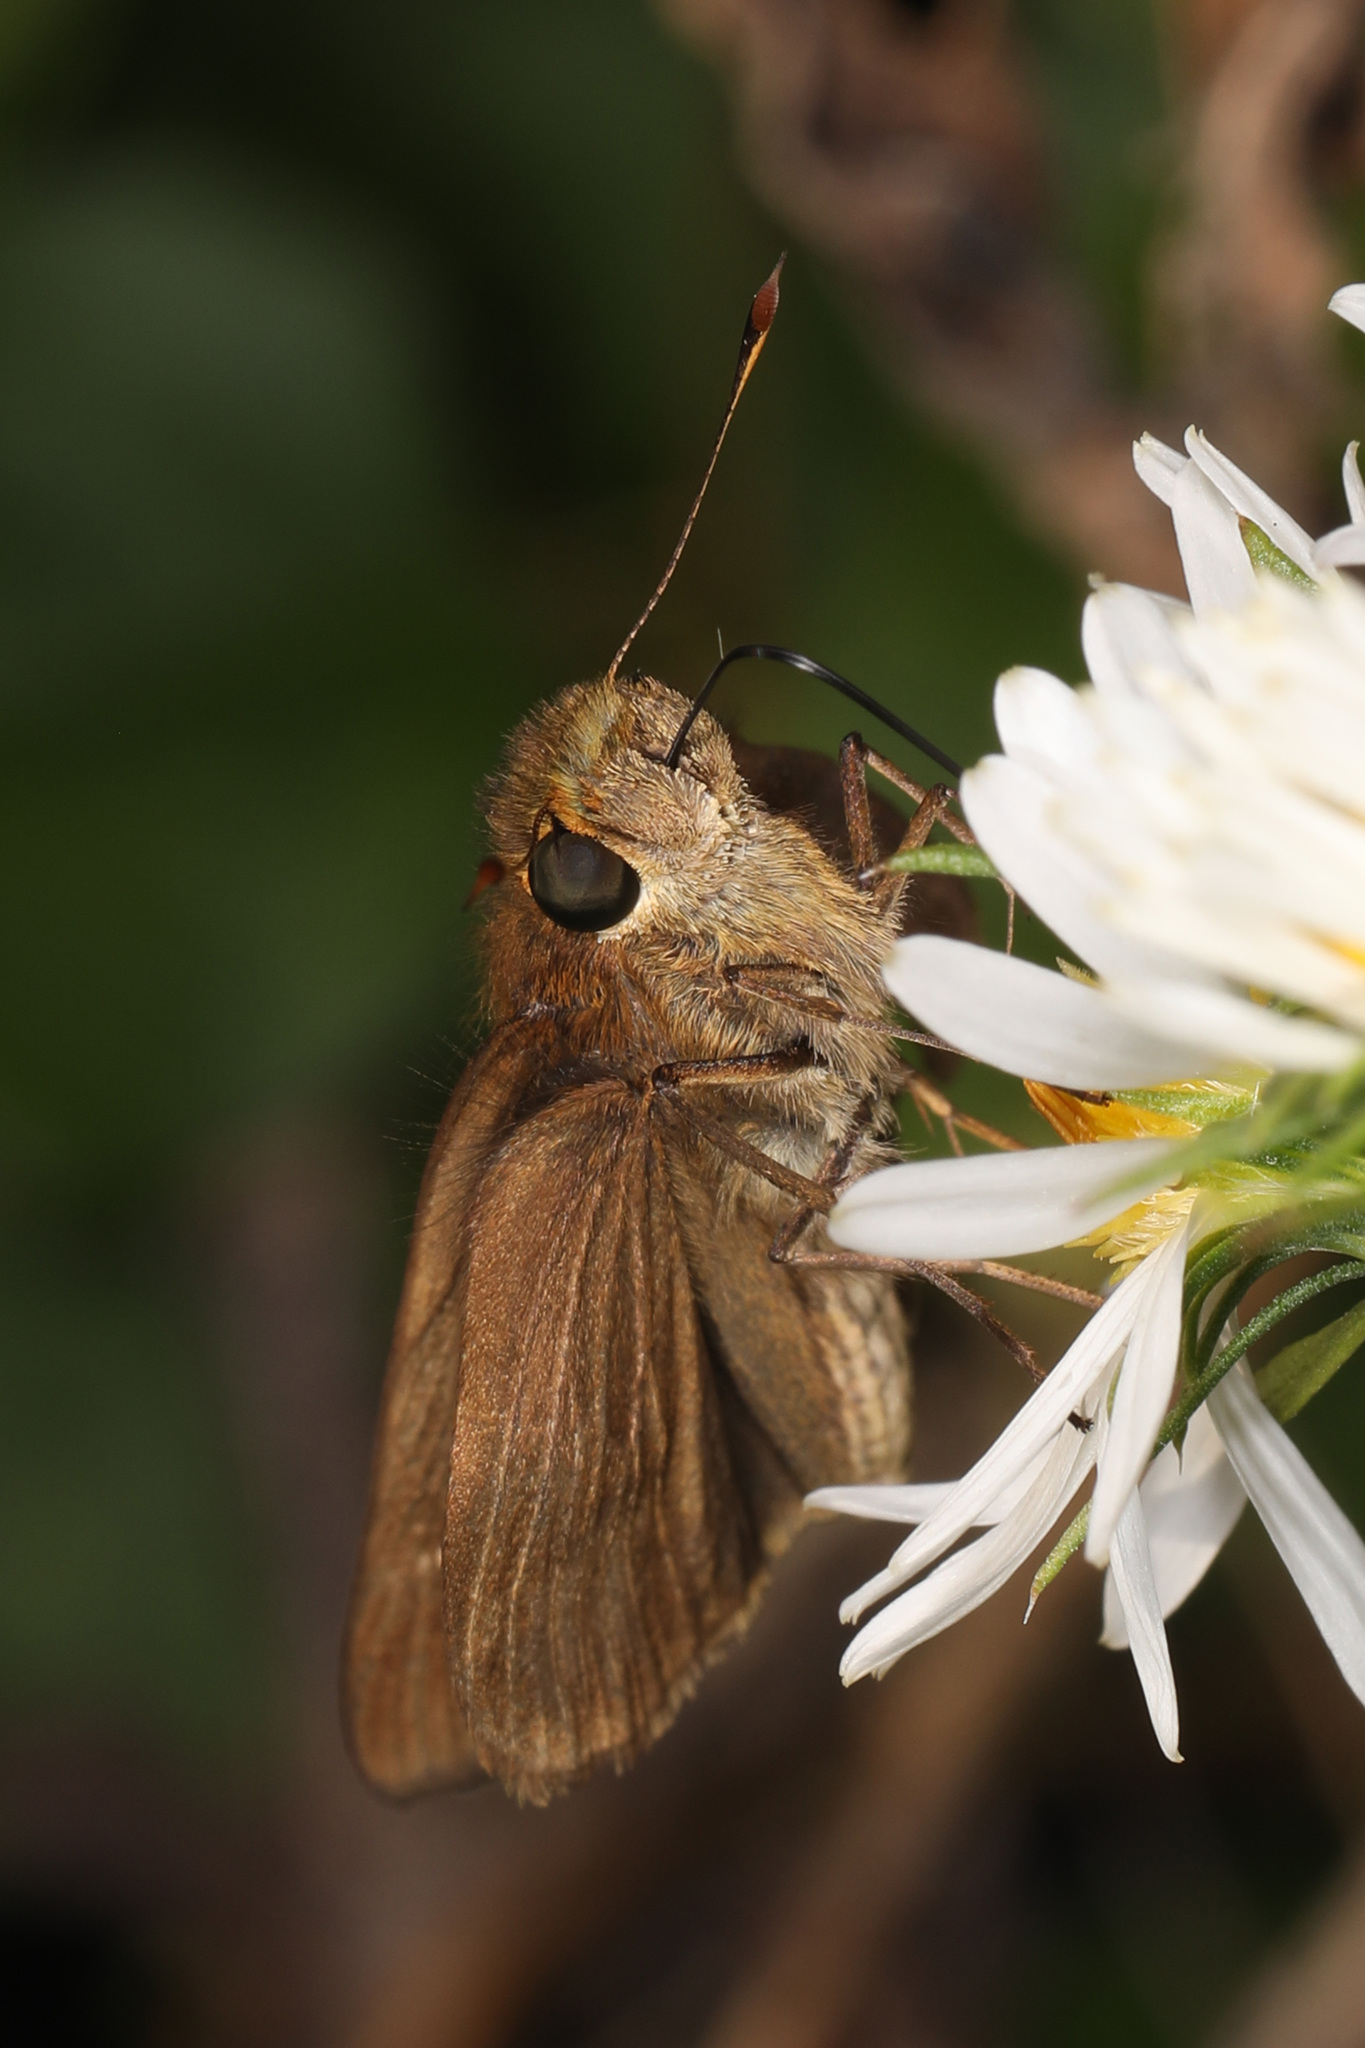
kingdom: Animalia
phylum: Arthropoda
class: Insecta
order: Lepidoptera
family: Hesperiidae
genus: Panoquina
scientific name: Panoquina ocola
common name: Ocola skipper
